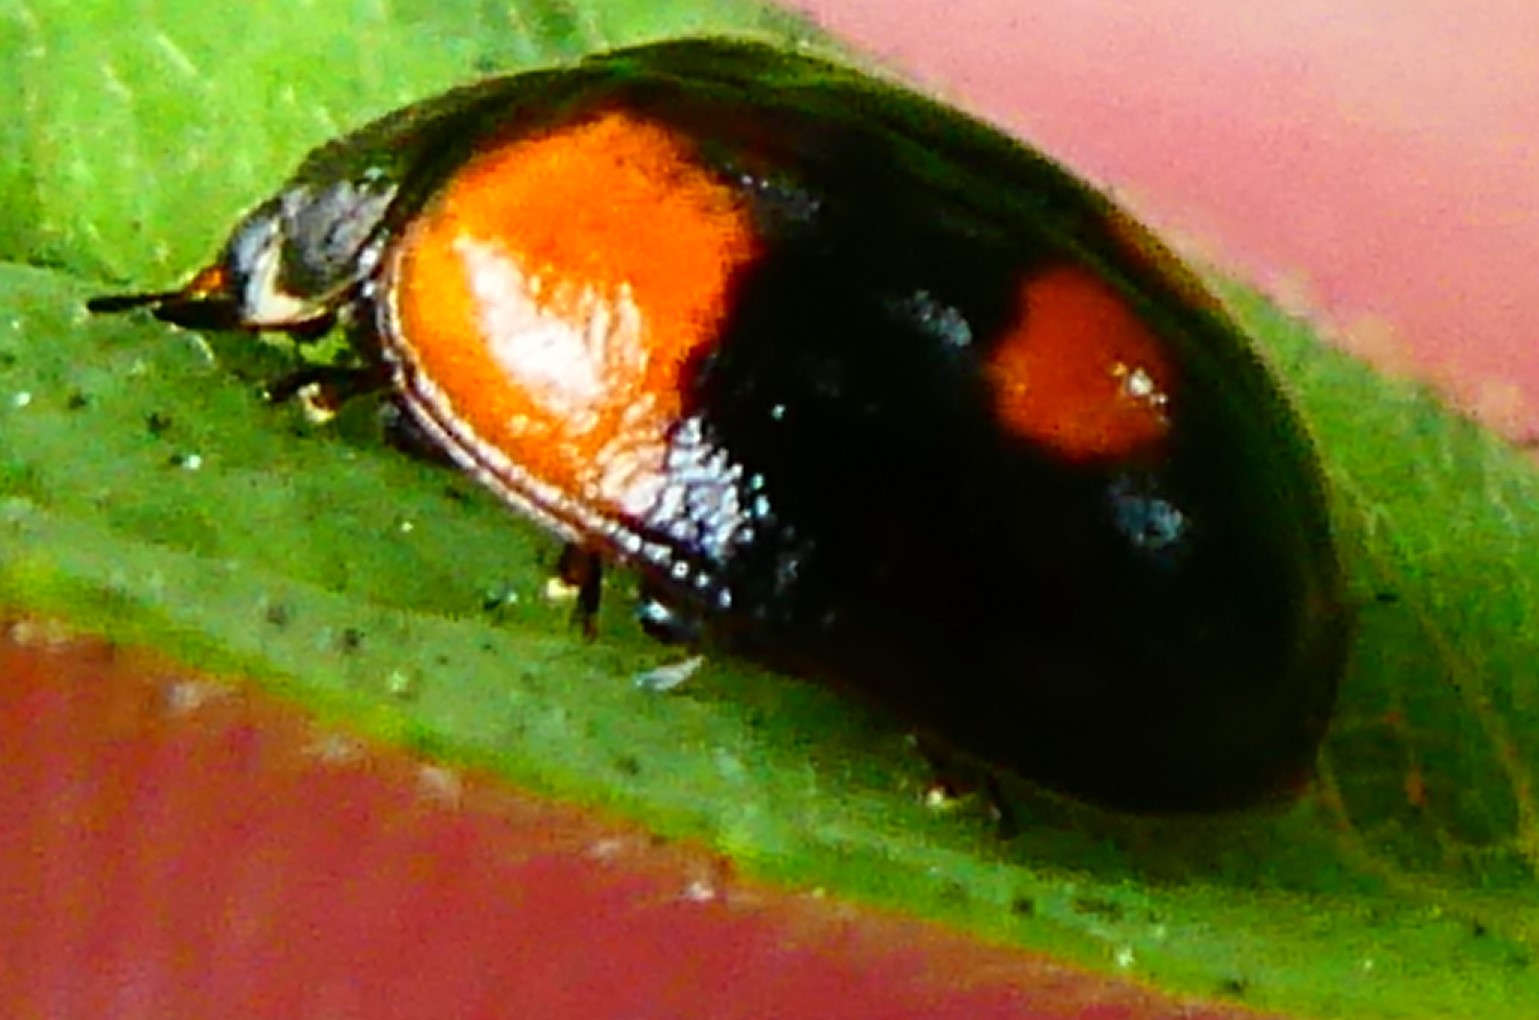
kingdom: Animalia
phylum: Arthropoda
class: Insecta
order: Coleoptera
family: Coccinellidae
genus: Adalia
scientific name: Adalia bipunctata
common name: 2-spot ladybird
